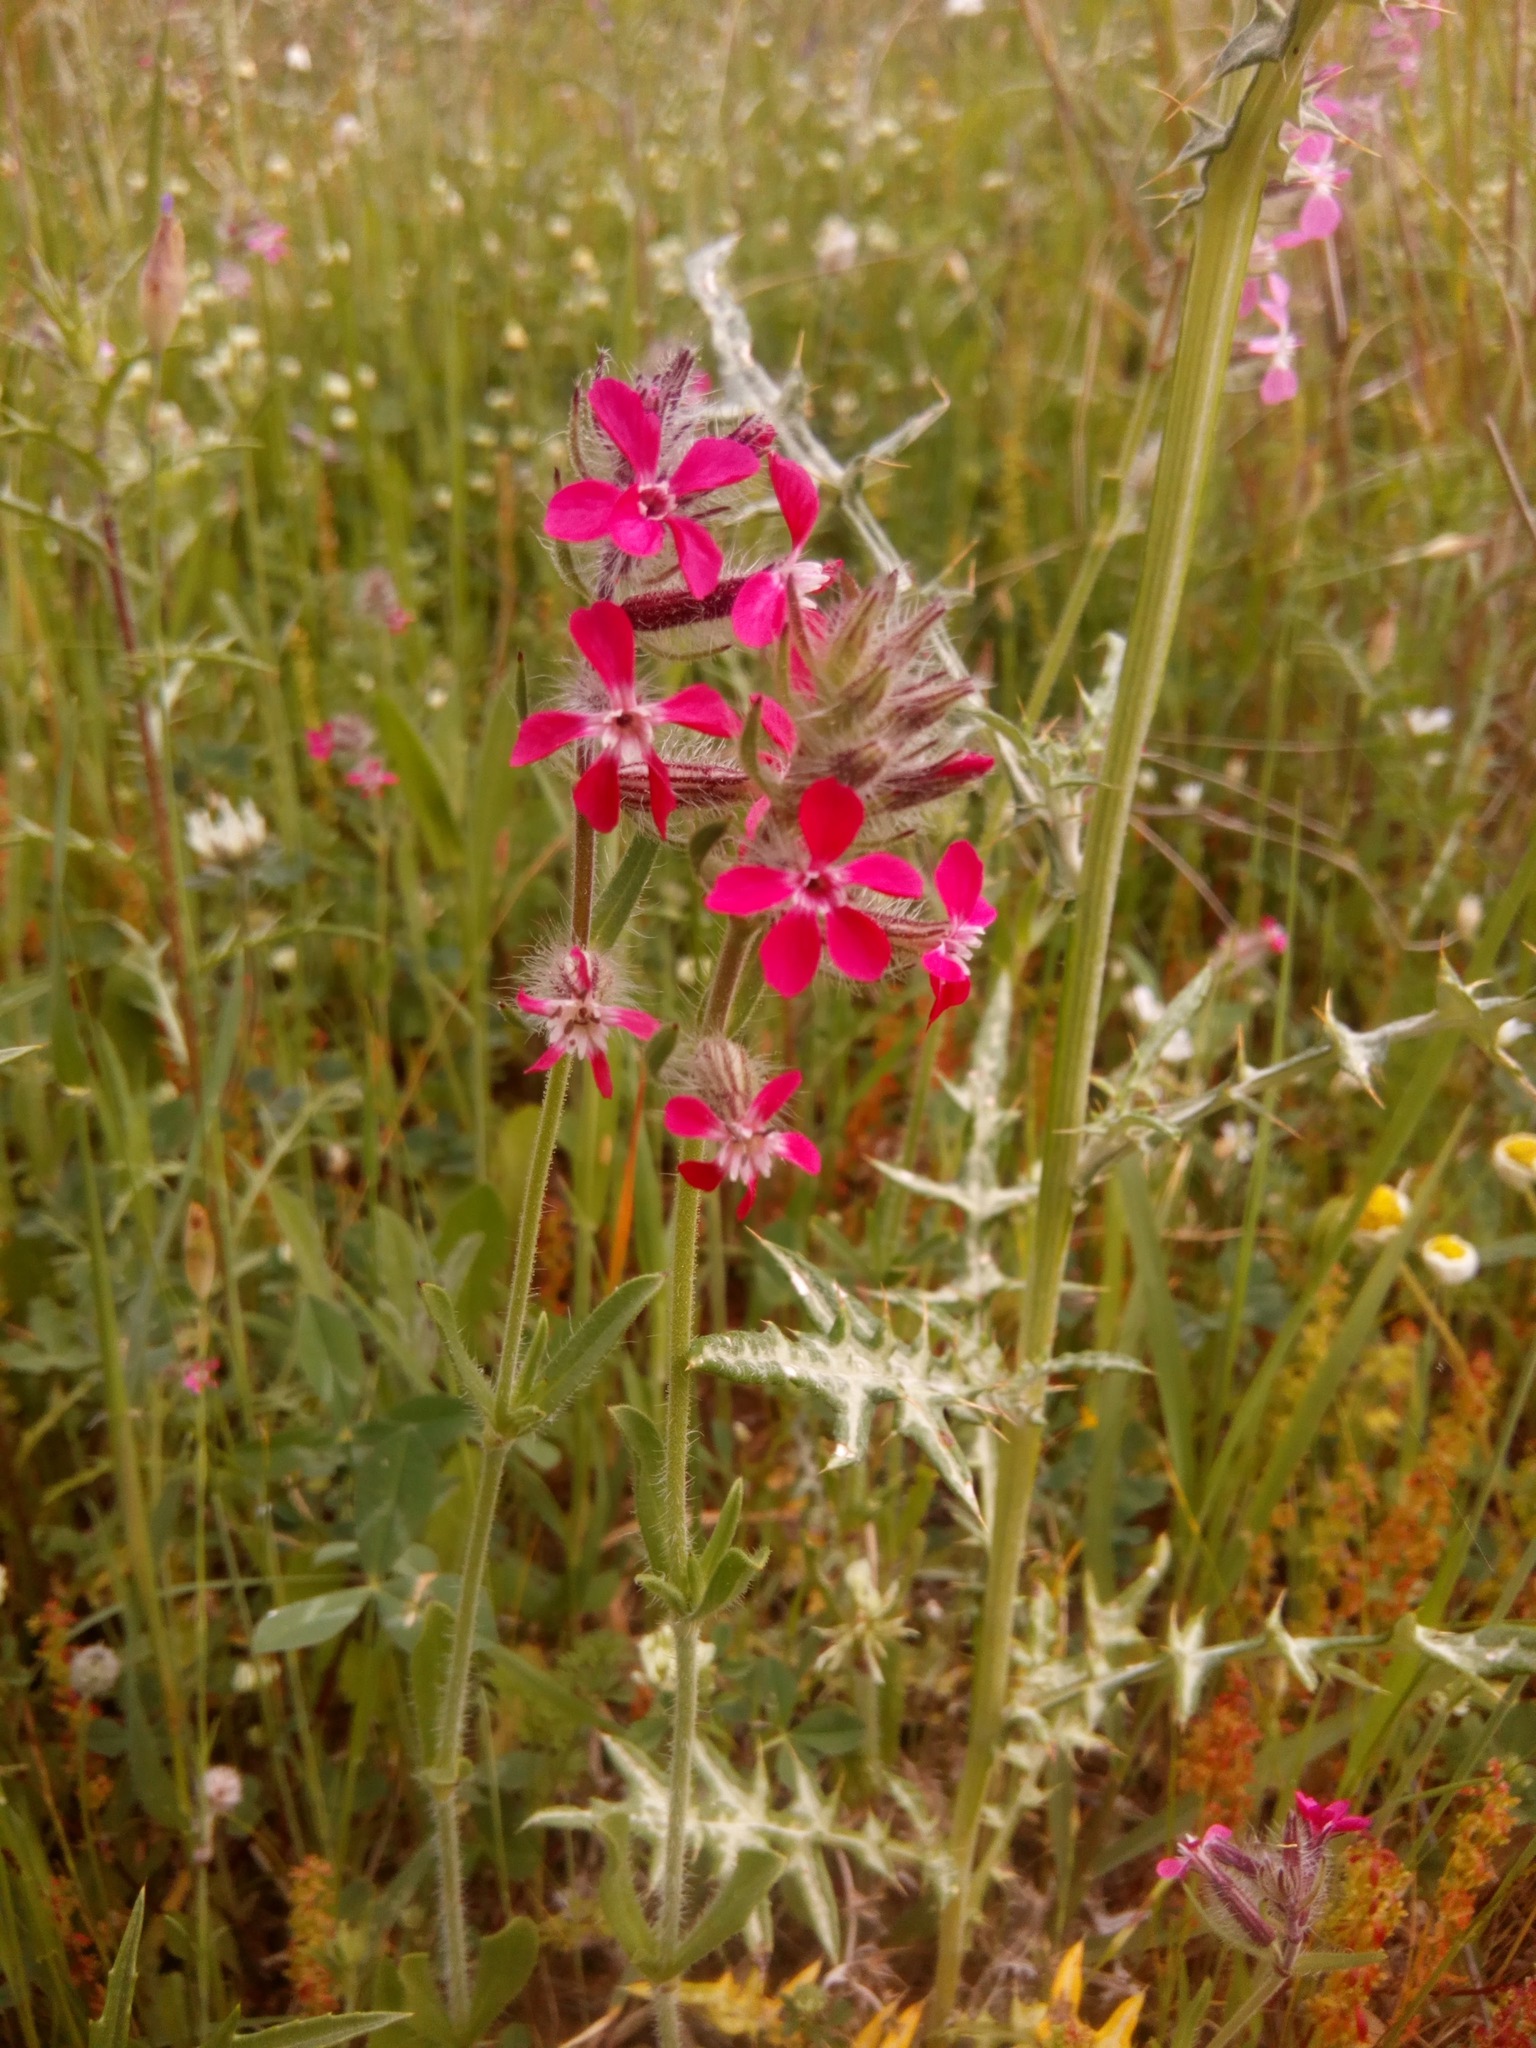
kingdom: Plantae
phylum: Tracheophyta
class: Magnoliopsida
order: Caryophyllales
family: Caryophyllaceae
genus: Silene
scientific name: Silene gallica
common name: Small-flowered catchfly
